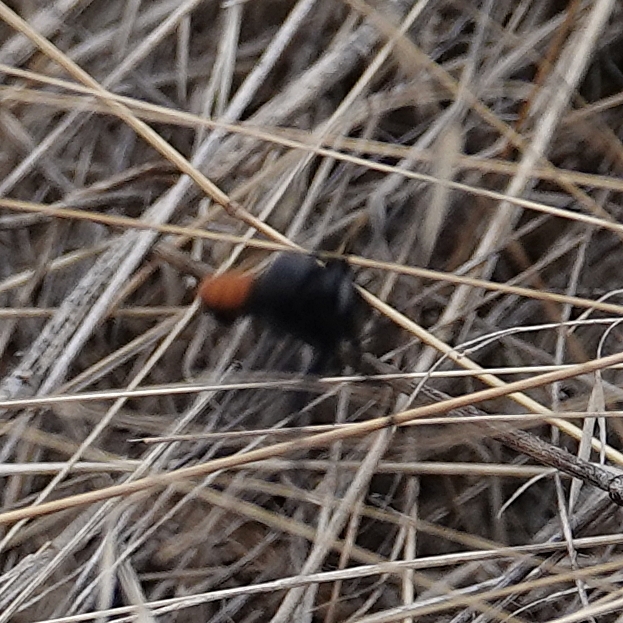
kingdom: Animalia
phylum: Arthropoda
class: Insecta
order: Diptera
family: Asilidae
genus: Stenopogon
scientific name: Stenopogon aeacus
